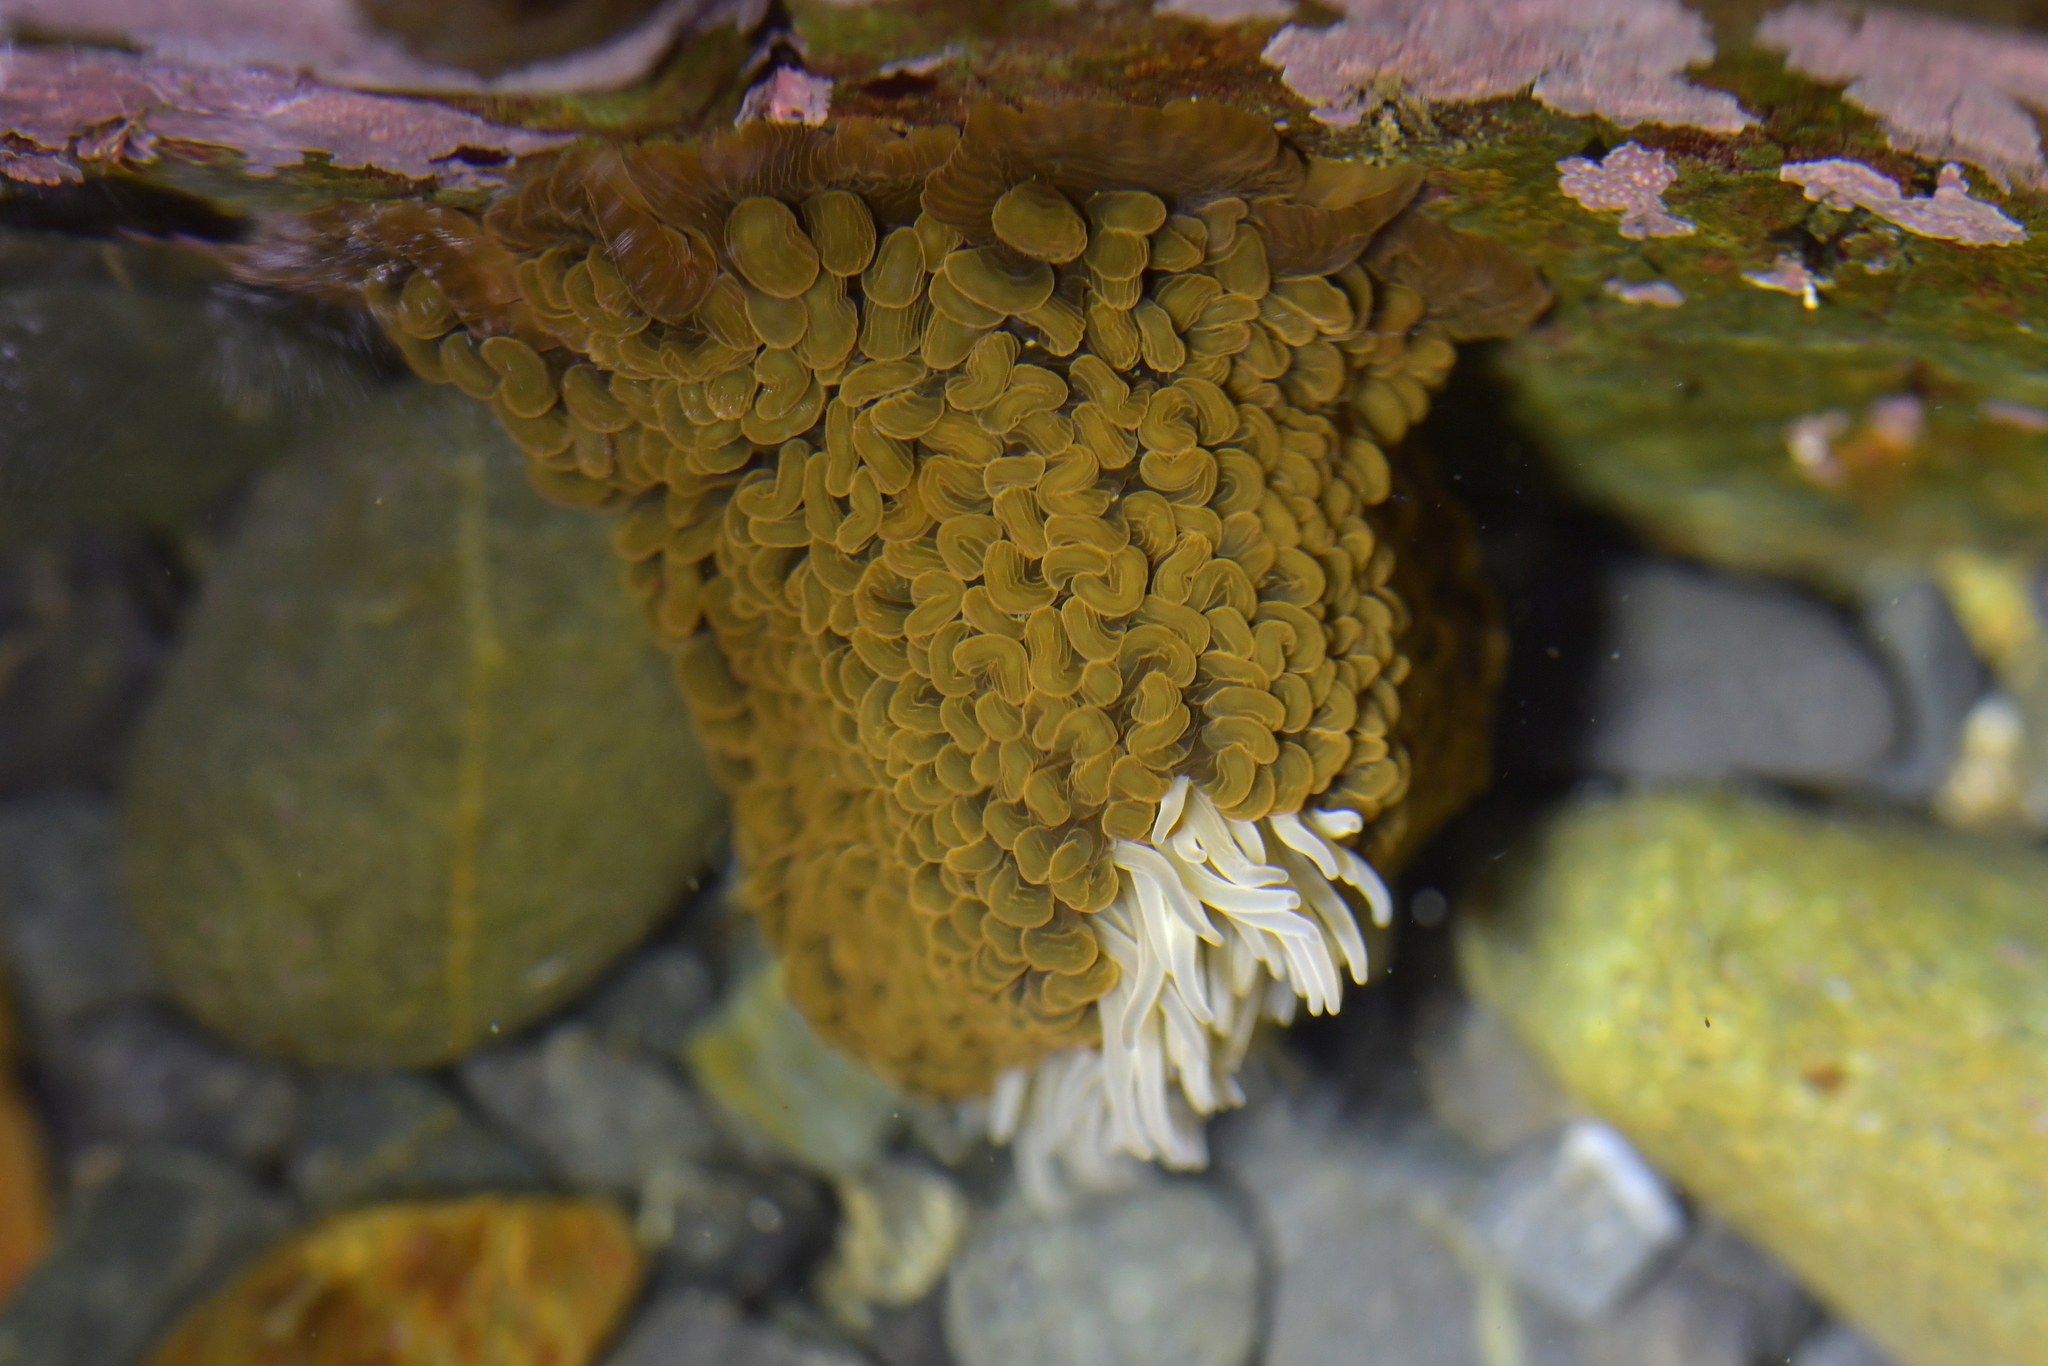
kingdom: Animalia
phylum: Cnidaria
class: Anthozoa
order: Actiniaria
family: Actiniidae
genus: Phlyctenactis
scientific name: Phlyctenactis tuberculosa
